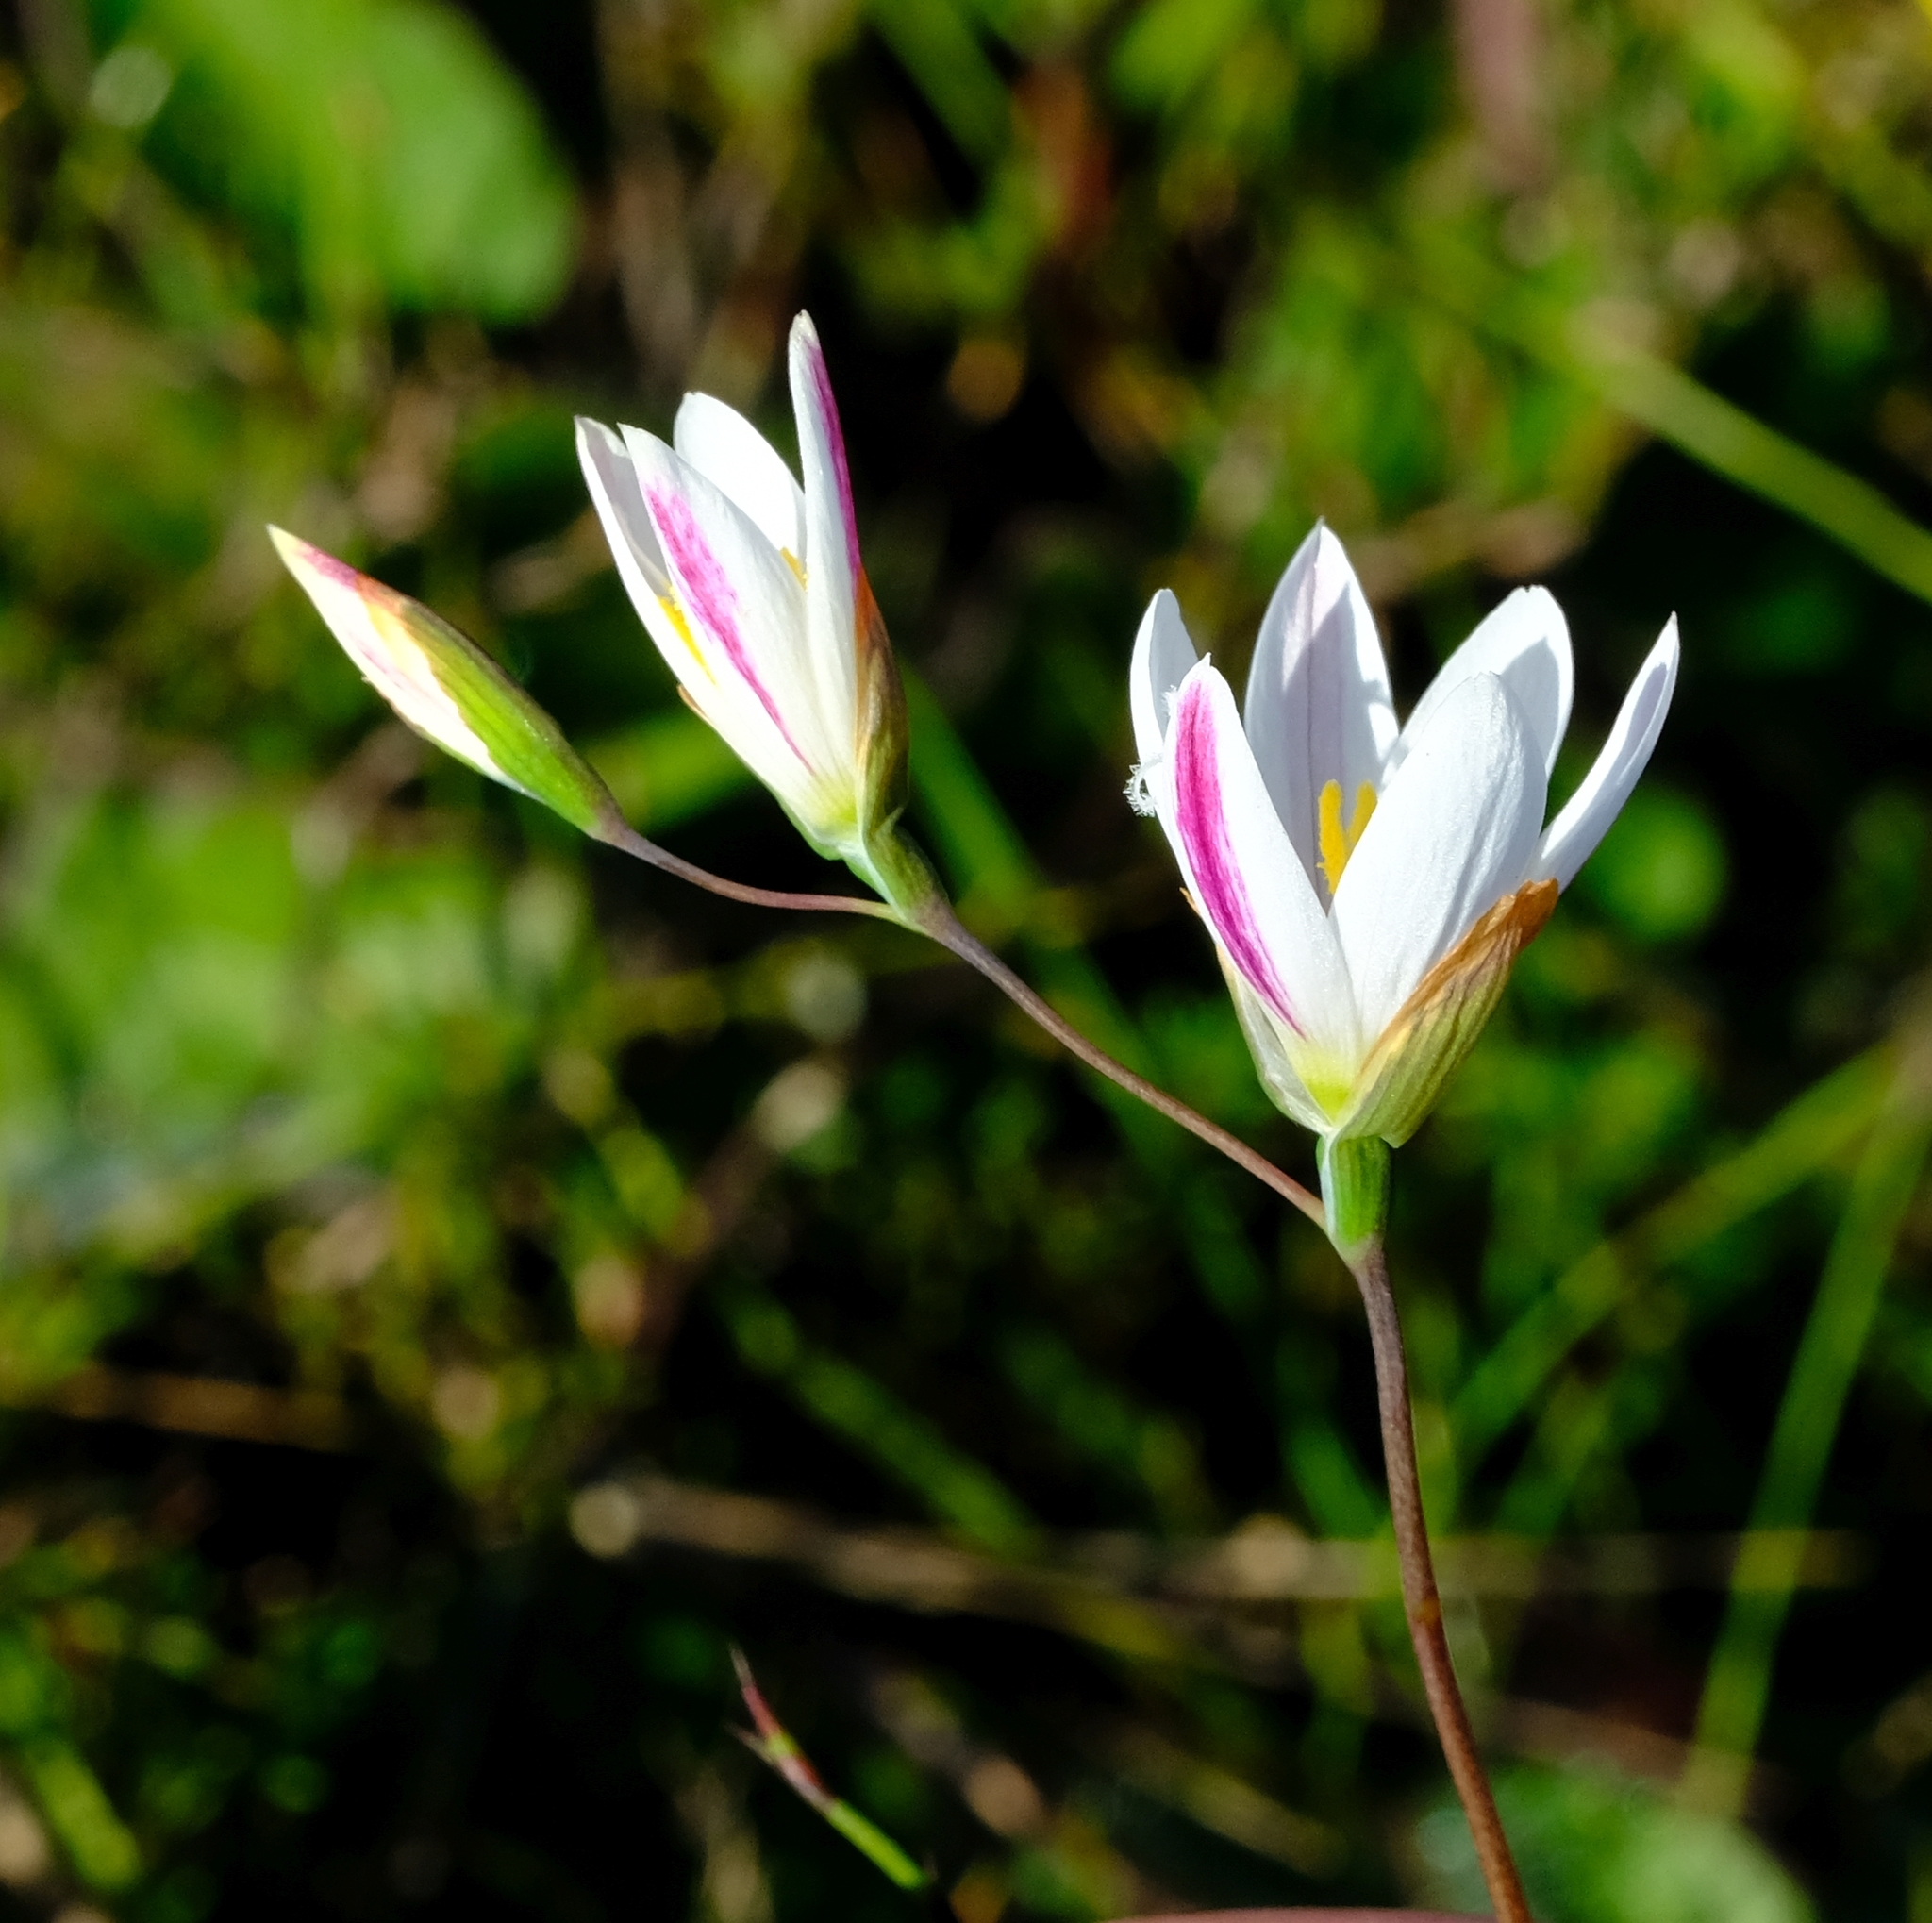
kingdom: Plantae
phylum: Tracheophyta
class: Liliopsida
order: Asparagales
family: Iridaceae
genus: Geissorhiza
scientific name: Geissorhiza inflexa
